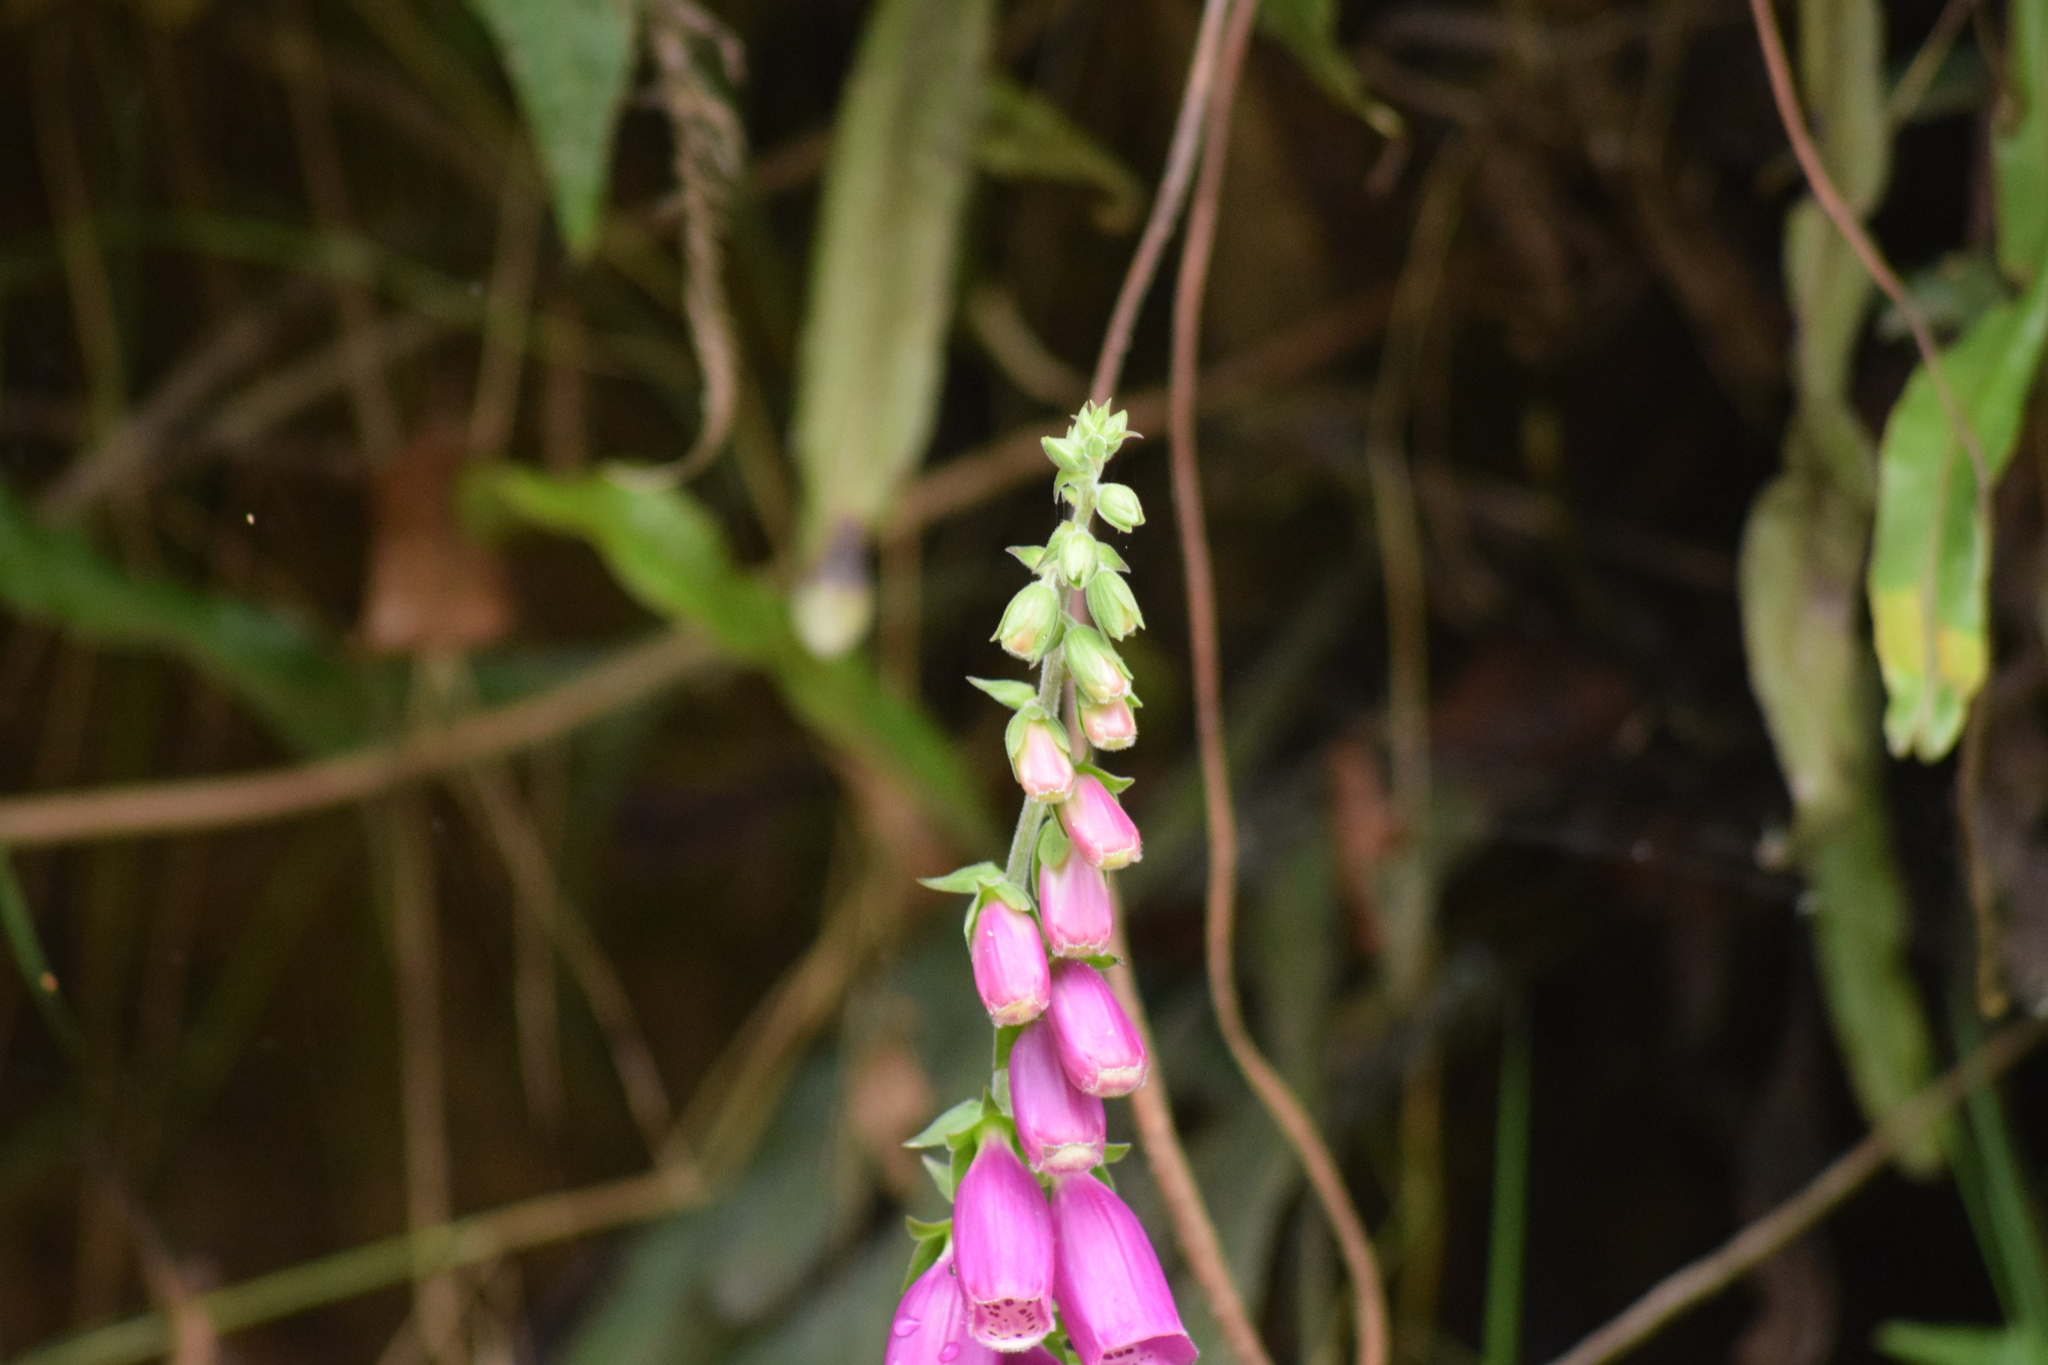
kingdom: Plantae
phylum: Tracheophyta
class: Magnoliopsida
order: Lamiales
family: Plantaginaceae
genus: Digitalis
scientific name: Digitalis purpurea
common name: Foxglove
